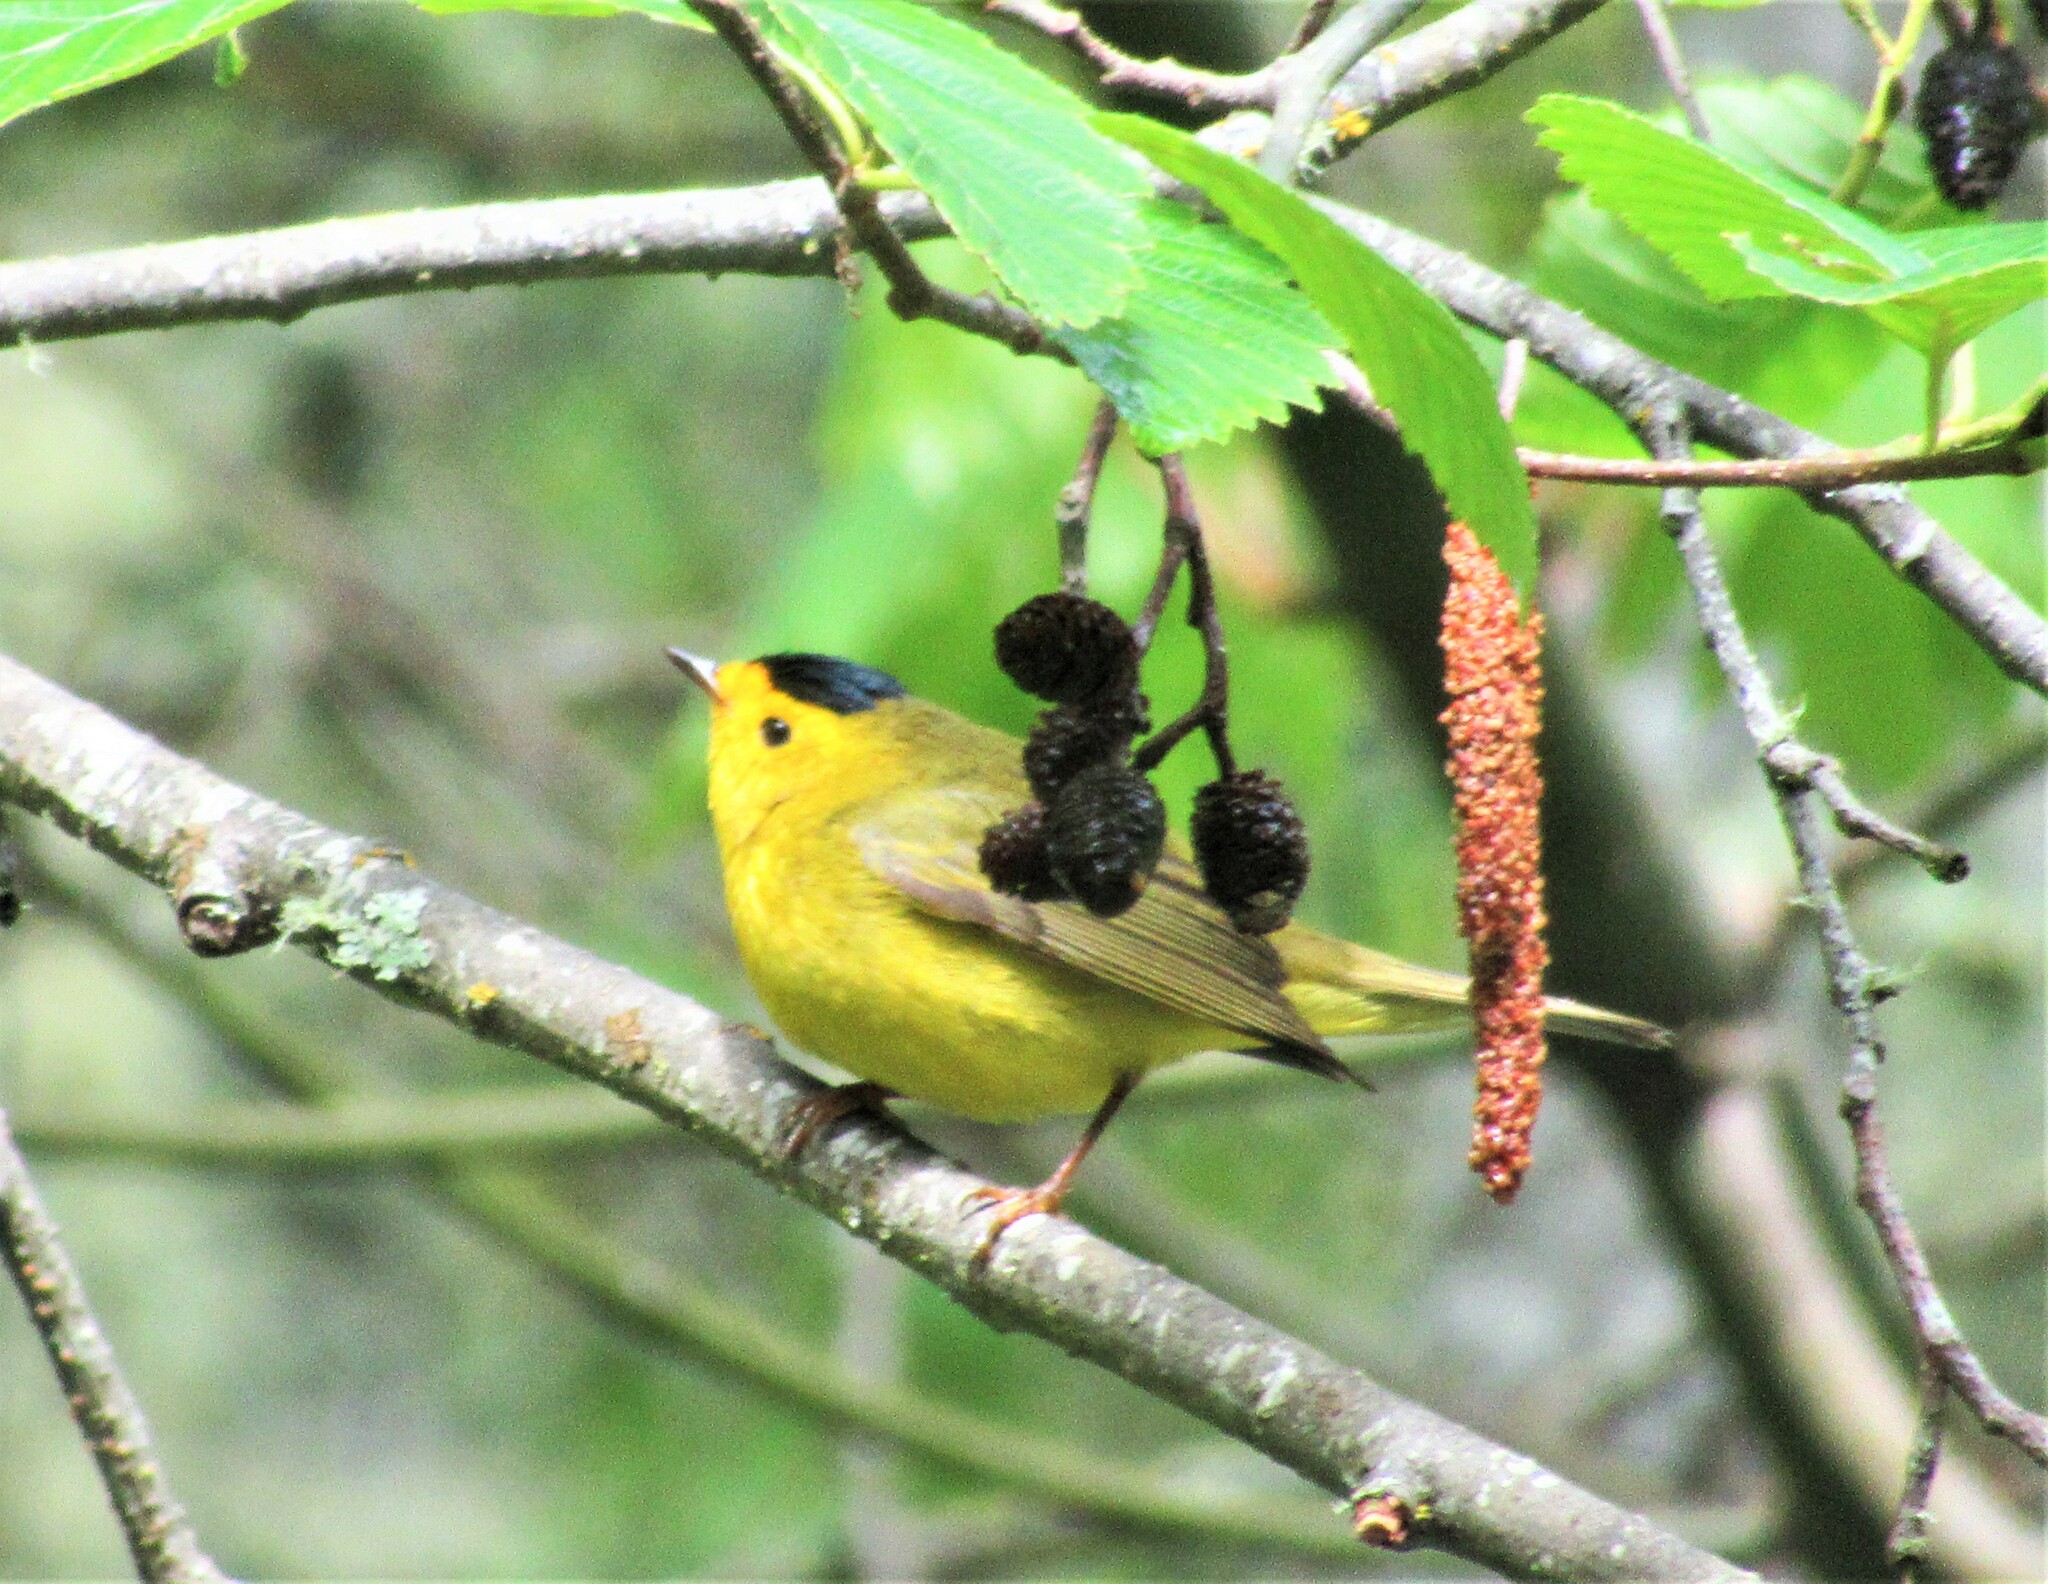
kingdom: Animalia
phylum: Chordata
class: Aves
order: Passeriformes
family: Parulidae
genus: Cardellina
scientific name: Cardellina pusilla
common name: Wilson's warbler
